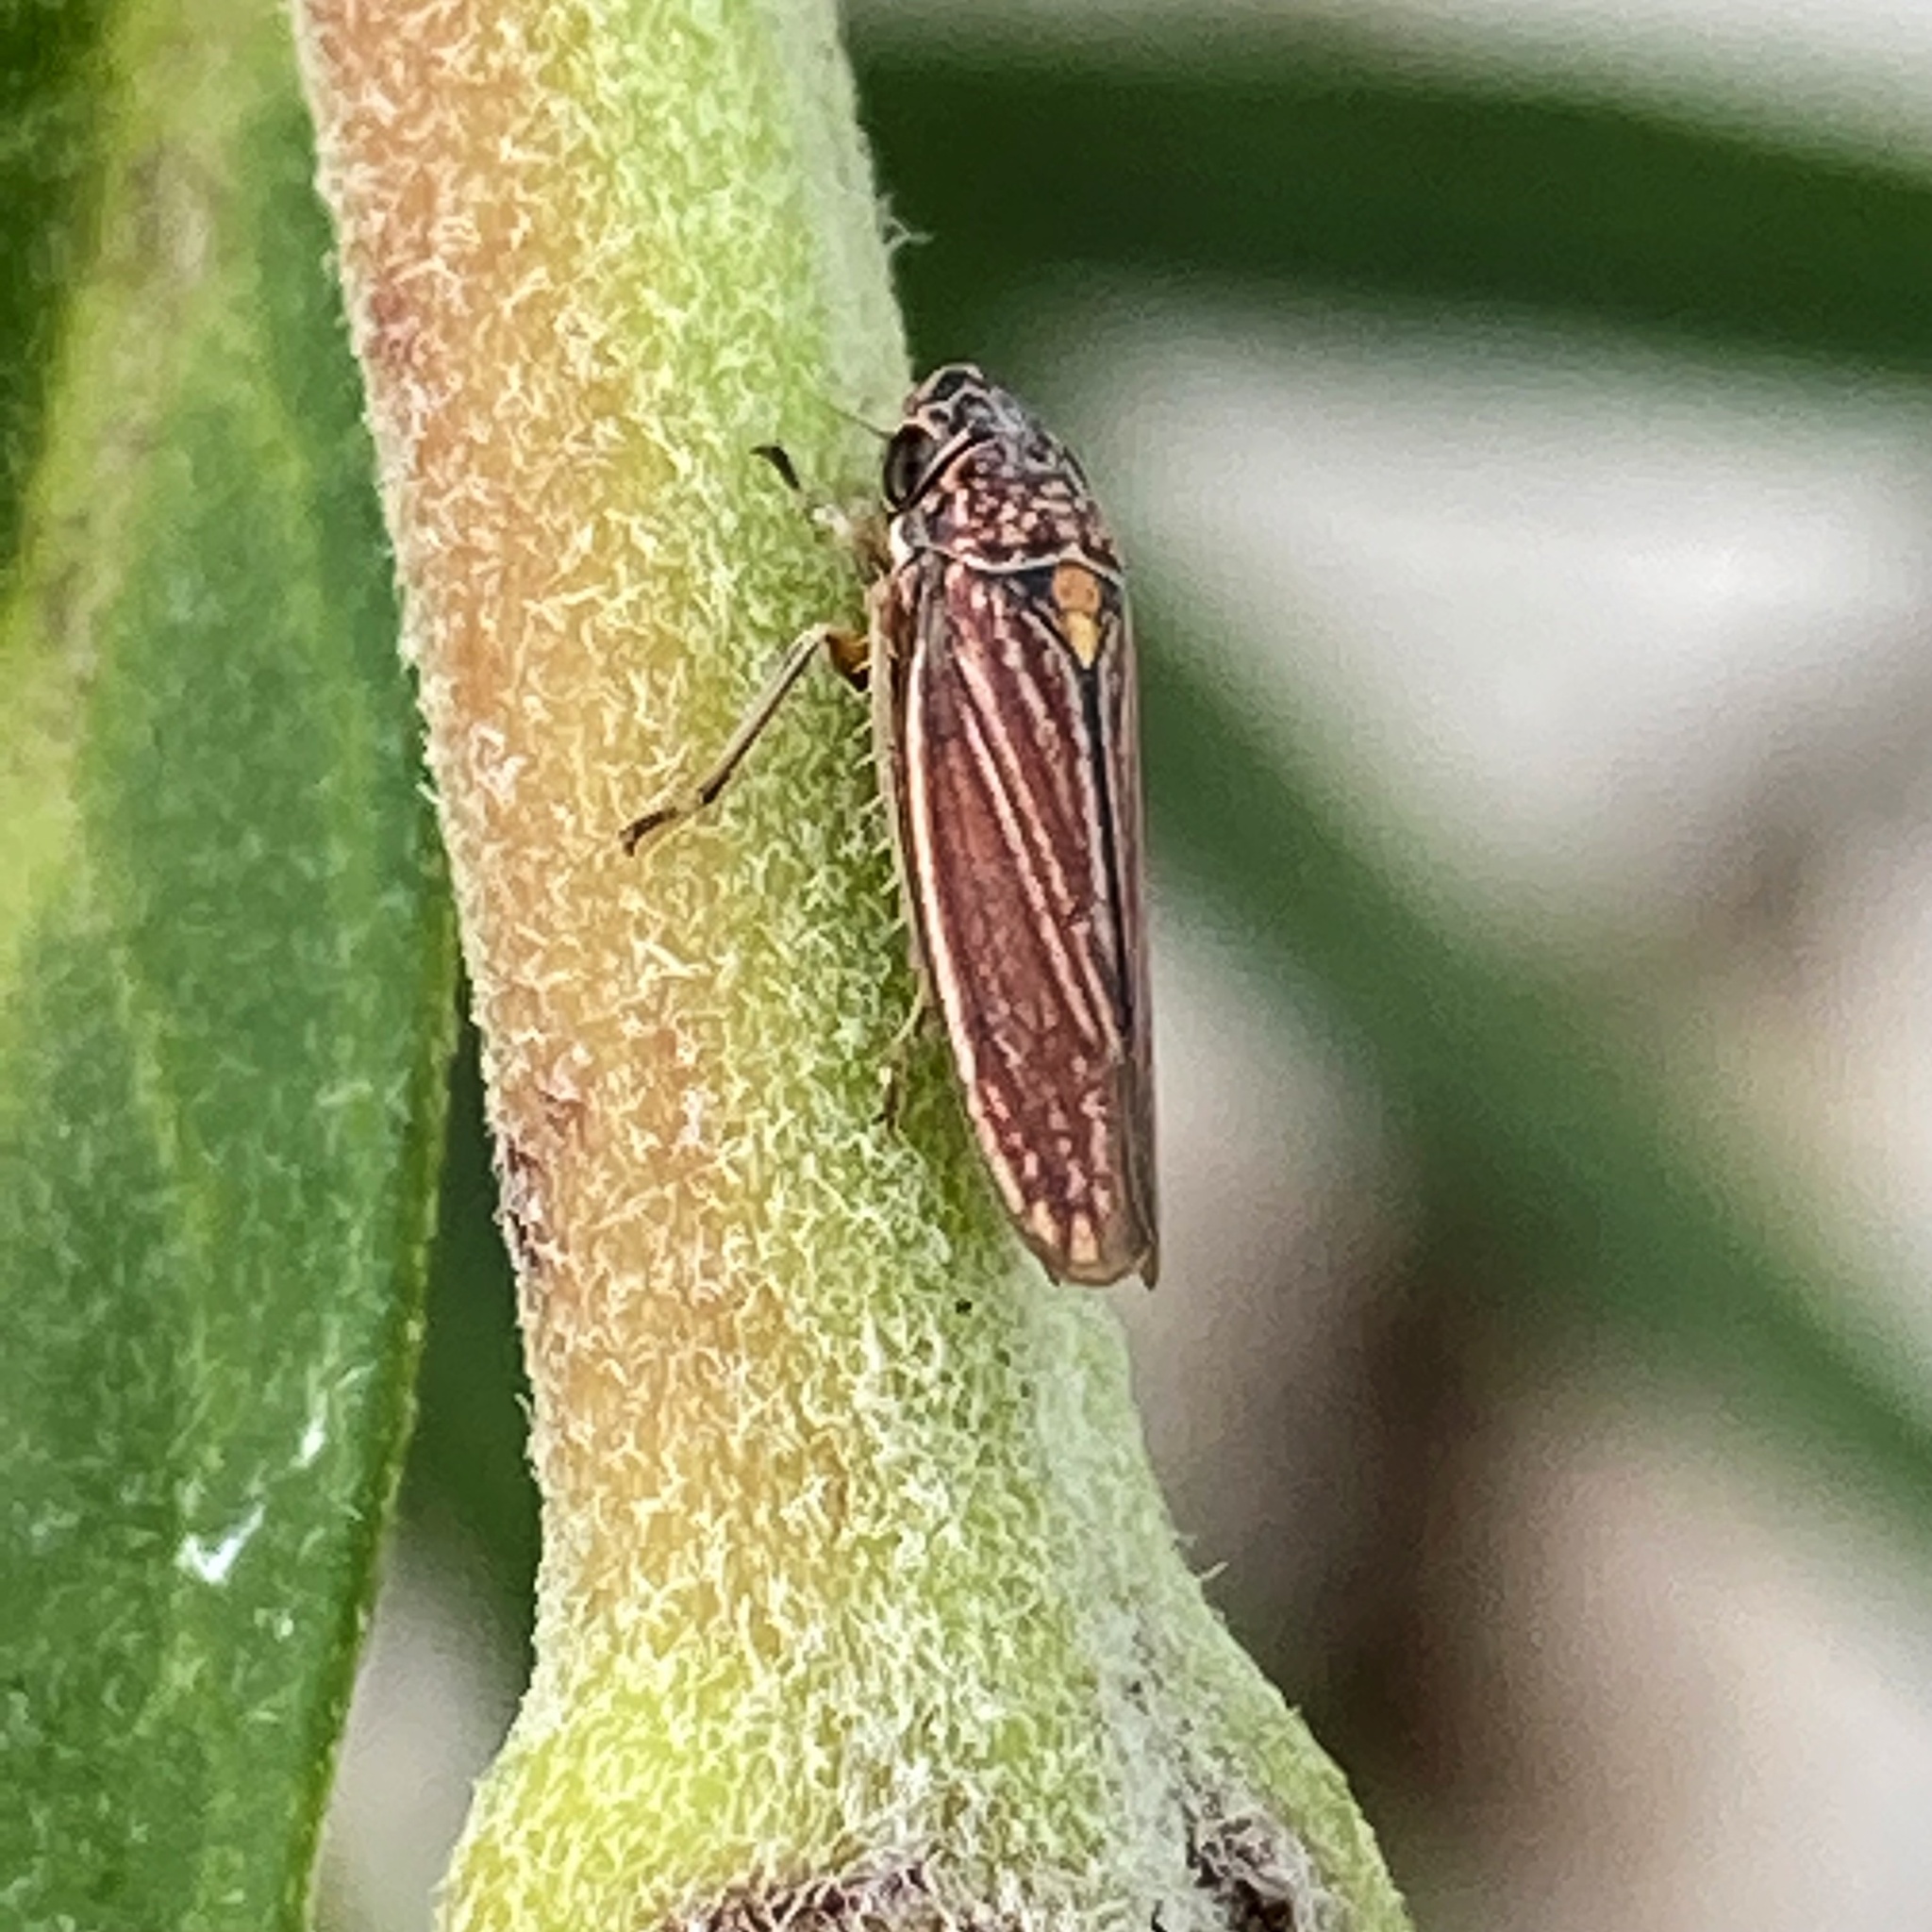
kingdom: Animalia
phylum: Arthropoda
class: Insecta
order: Hemiptera
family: Cicadellidae
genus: Cuerna
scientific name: Cuerna costalis
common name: Lateral-lined sharpshooter
